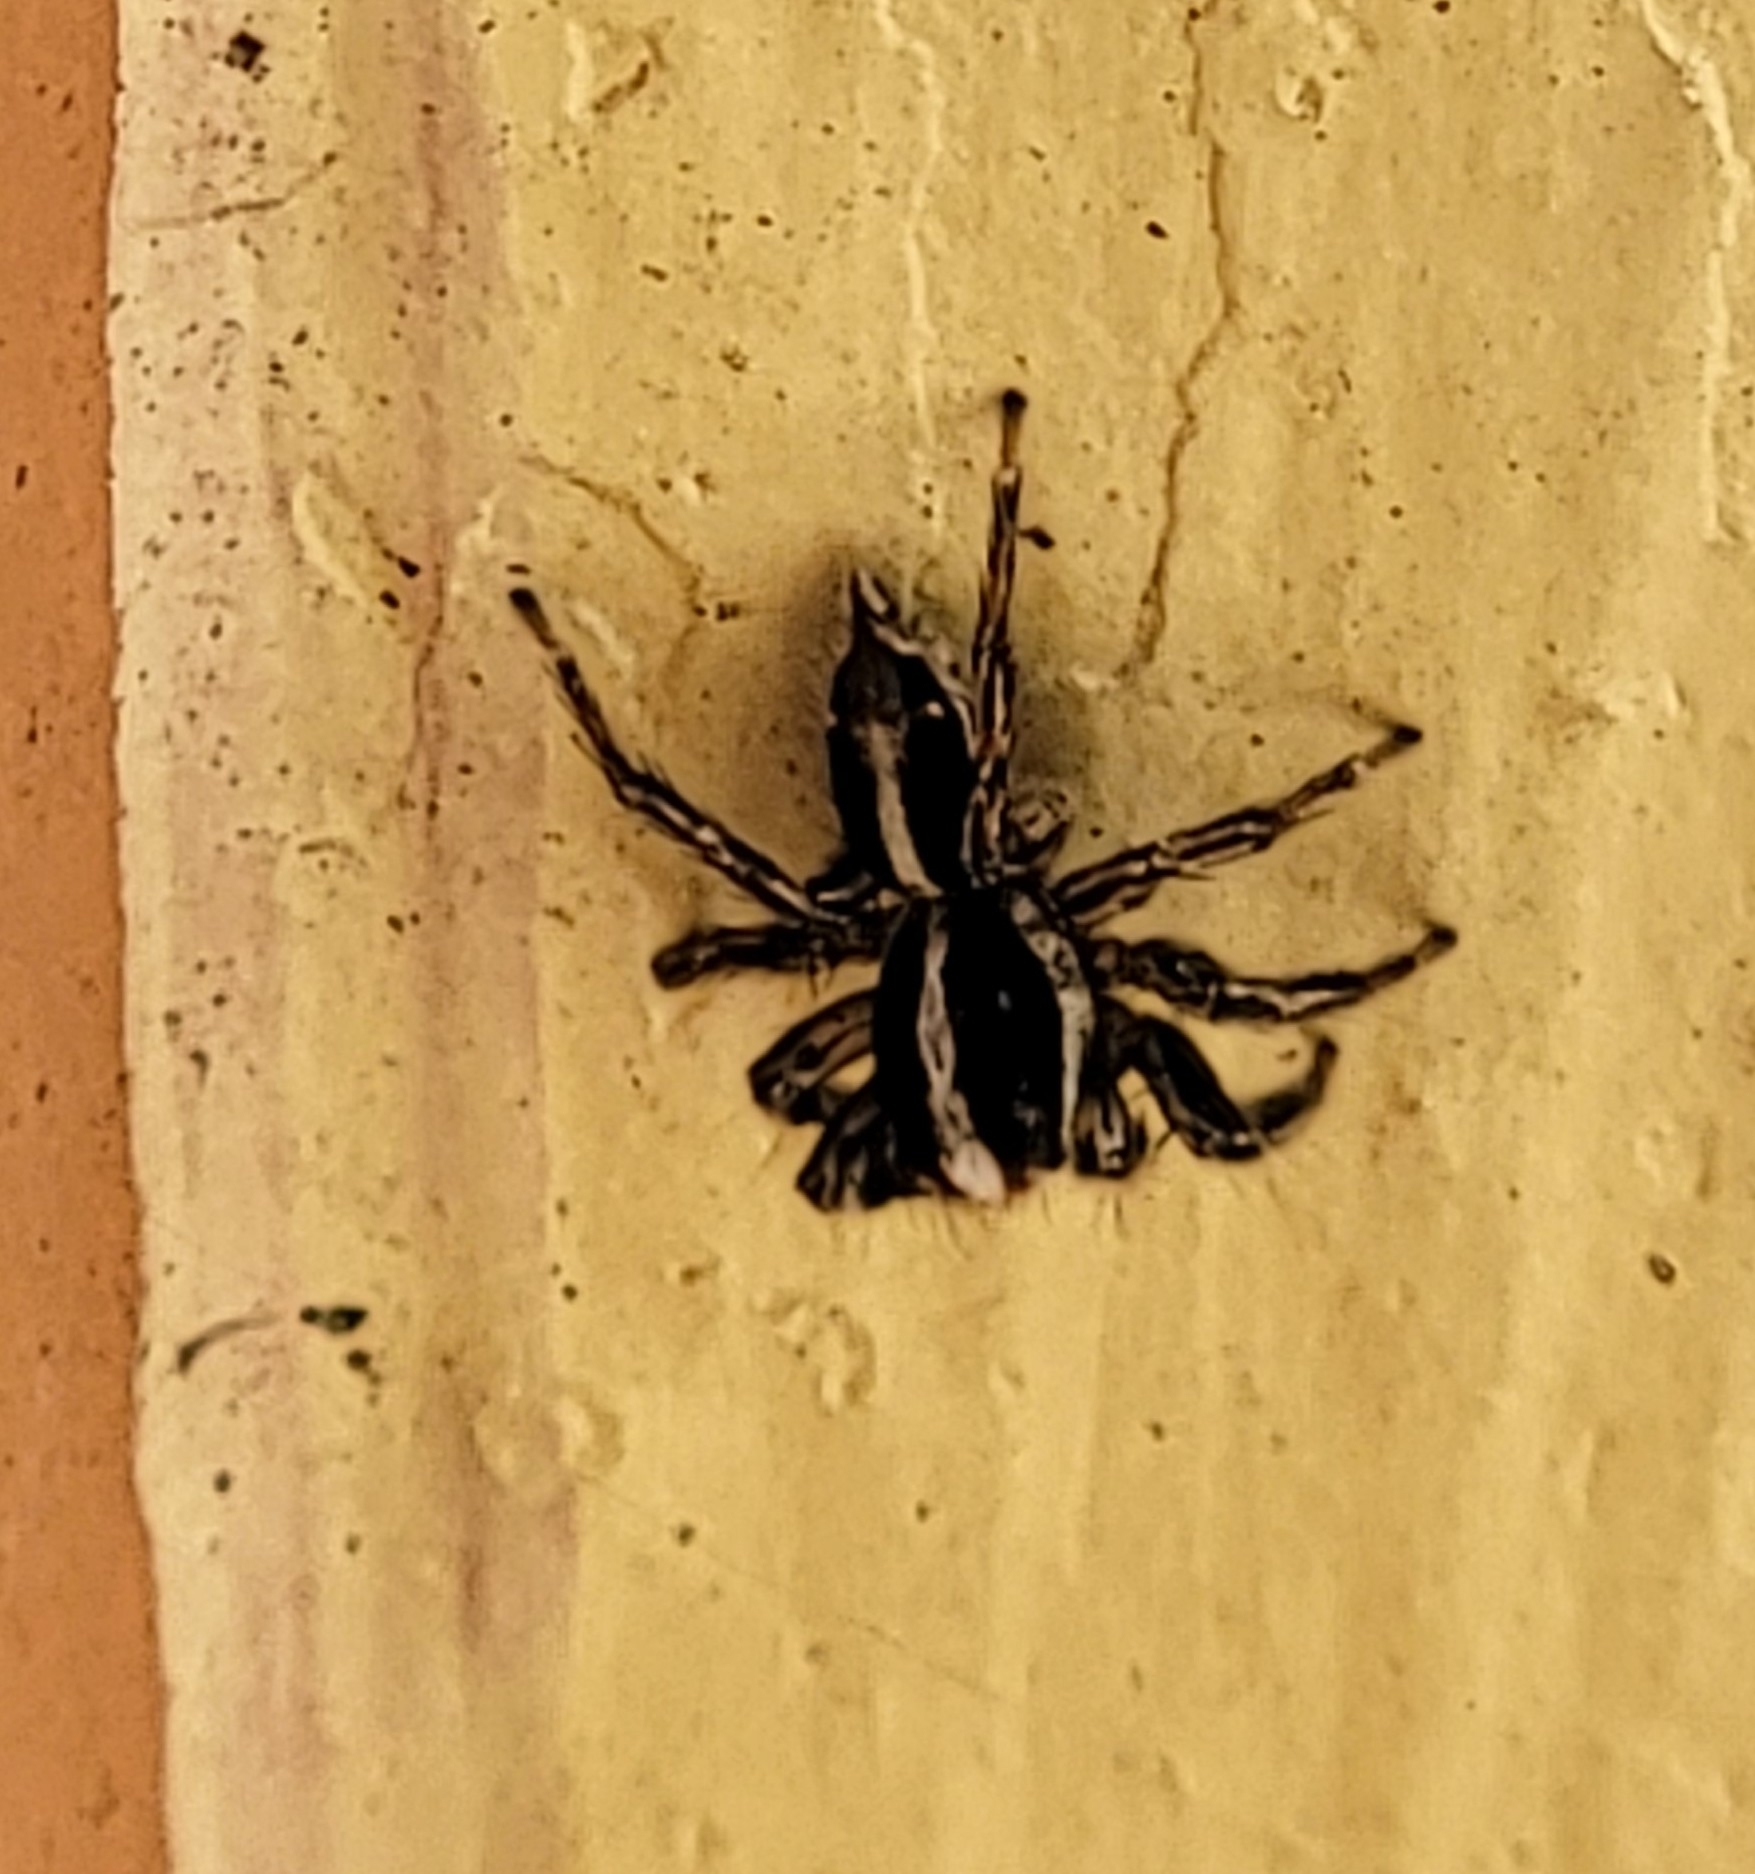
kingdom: Animalia
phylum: Arthropoda
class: Arachnida
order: Araneae
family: Salticidae
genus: Plexippus
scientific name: Plexippus paykulli
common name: Pantropical jumper
